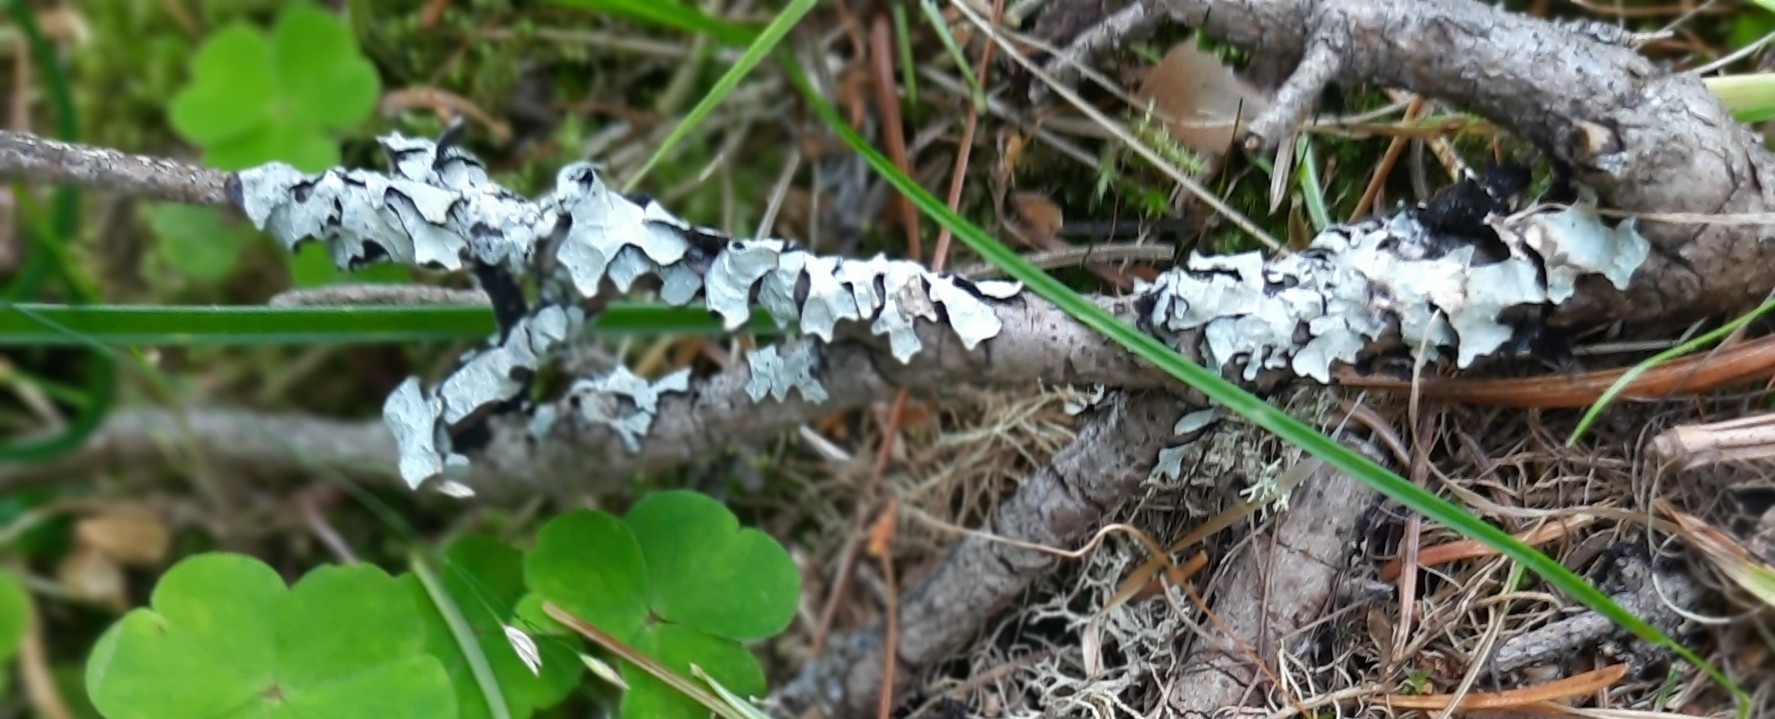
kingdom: Fungi
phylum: Ascomycota
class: Lecanoromycetes
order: Lecanorales
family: Parmeliaceae
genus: Parmelia
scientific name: Parmelia sulcata
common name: Netted shield lichen
